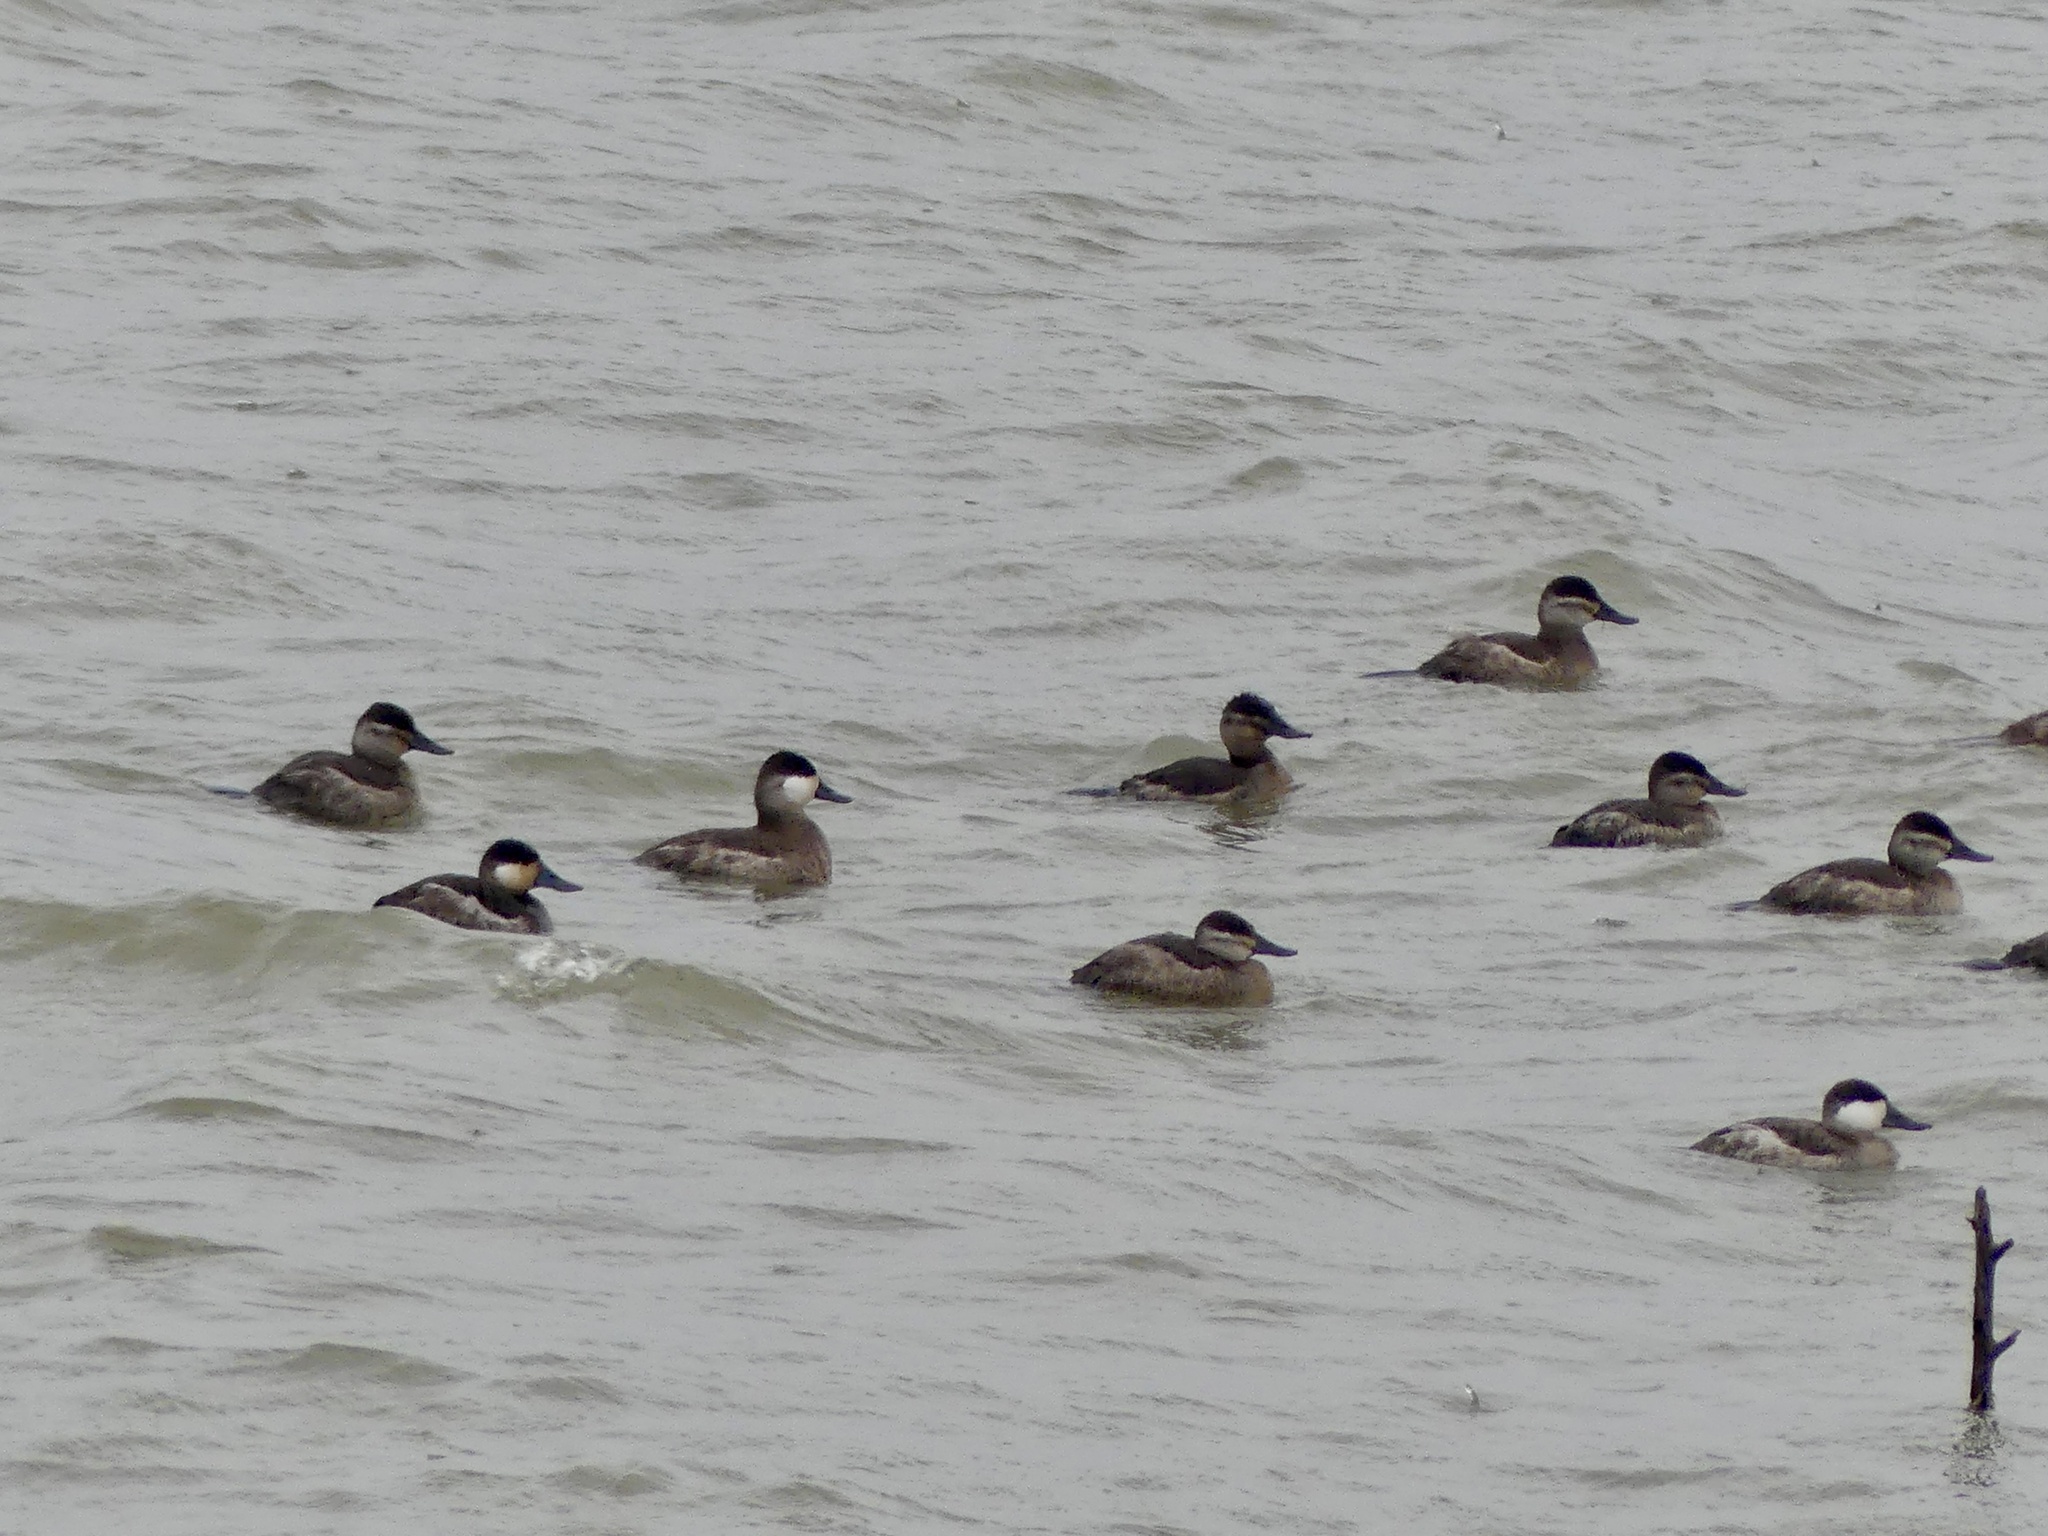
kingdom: Animalia
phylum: Chordata
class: Aves
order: Anseriformes
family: Anatidae
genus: Oxyura
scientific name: Oxyura jamaicensis
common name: Ruddy duck
